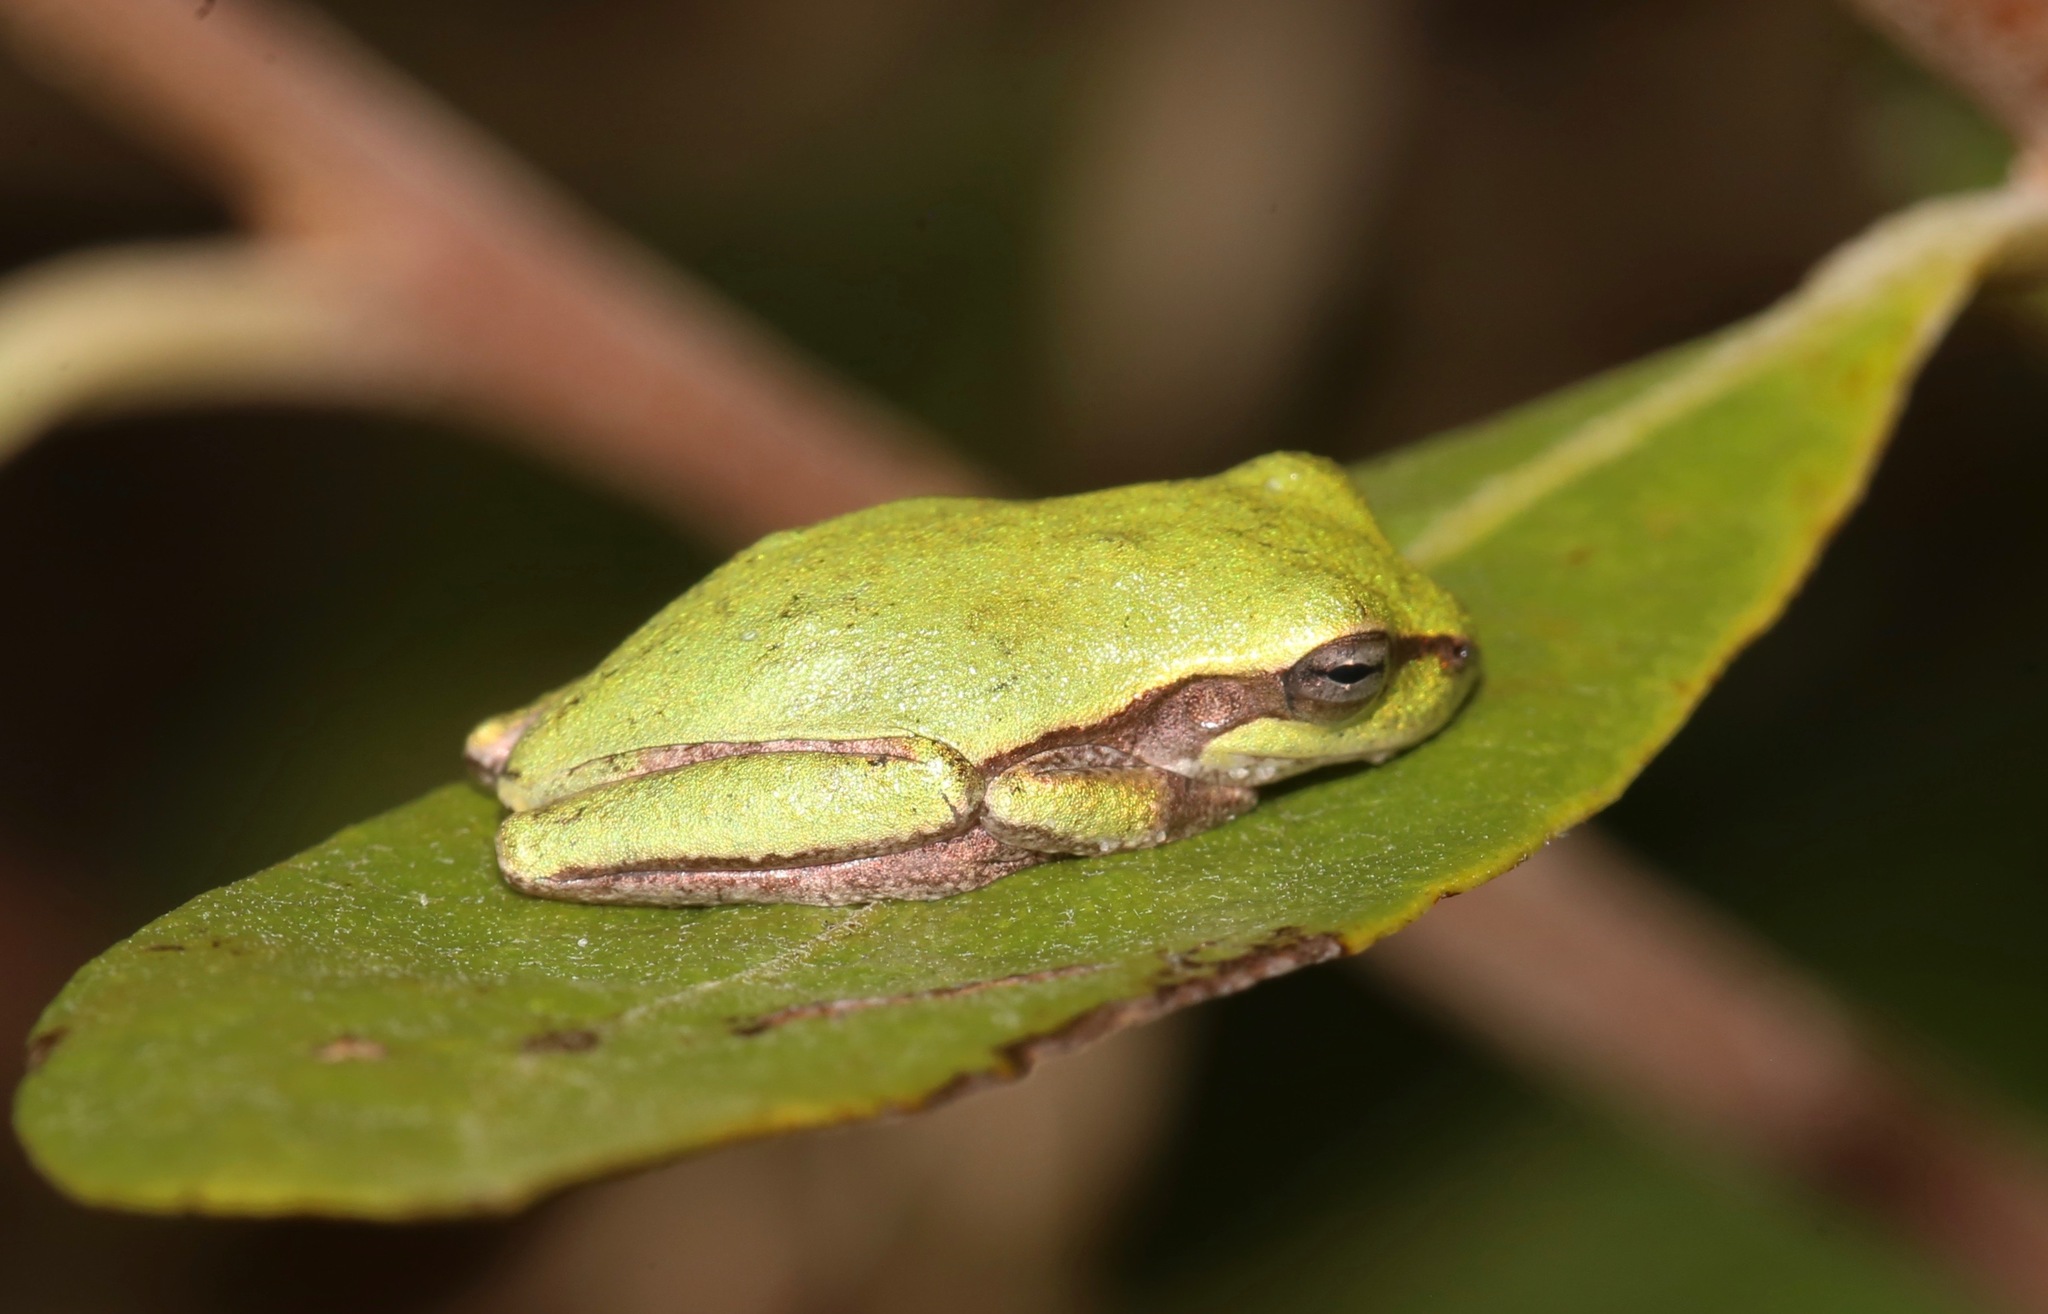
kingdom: Animalia
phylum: Chordata
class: Amphibia
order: Anura
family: Hylidae
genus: Hyla
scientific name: Hyla femoralis
